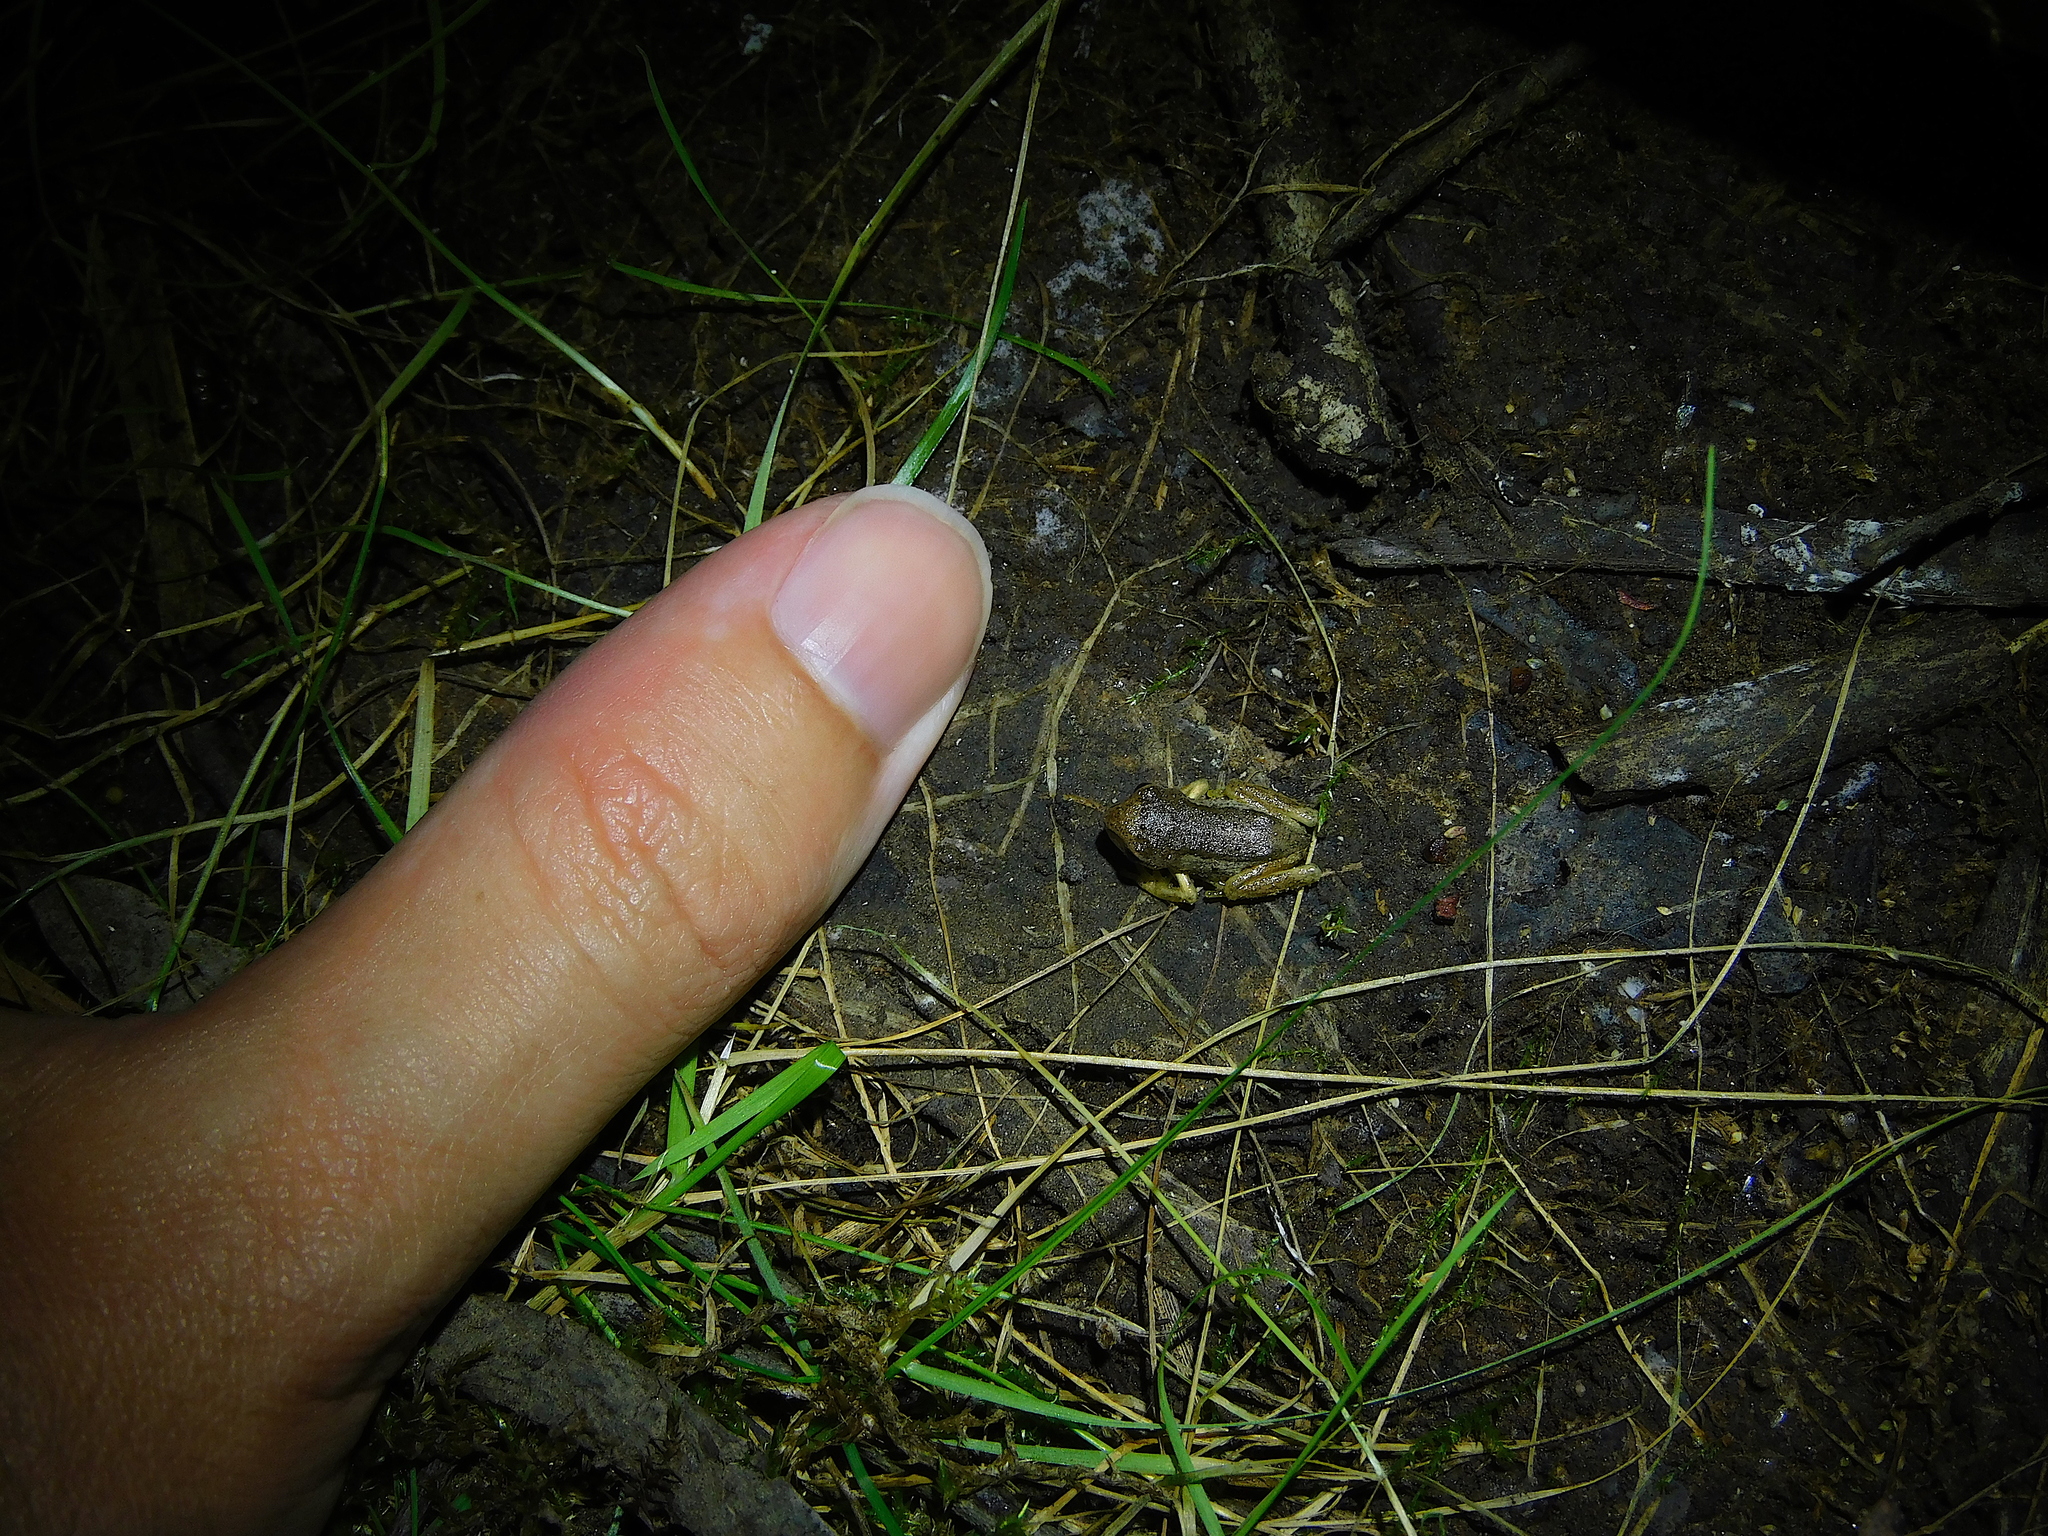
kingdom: Animalia
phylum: Chordata
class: Amphibia
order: Anura
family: Pelodryadidae
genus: Litoria
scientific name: Litoria ewingii
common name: Southern brown tree frog
